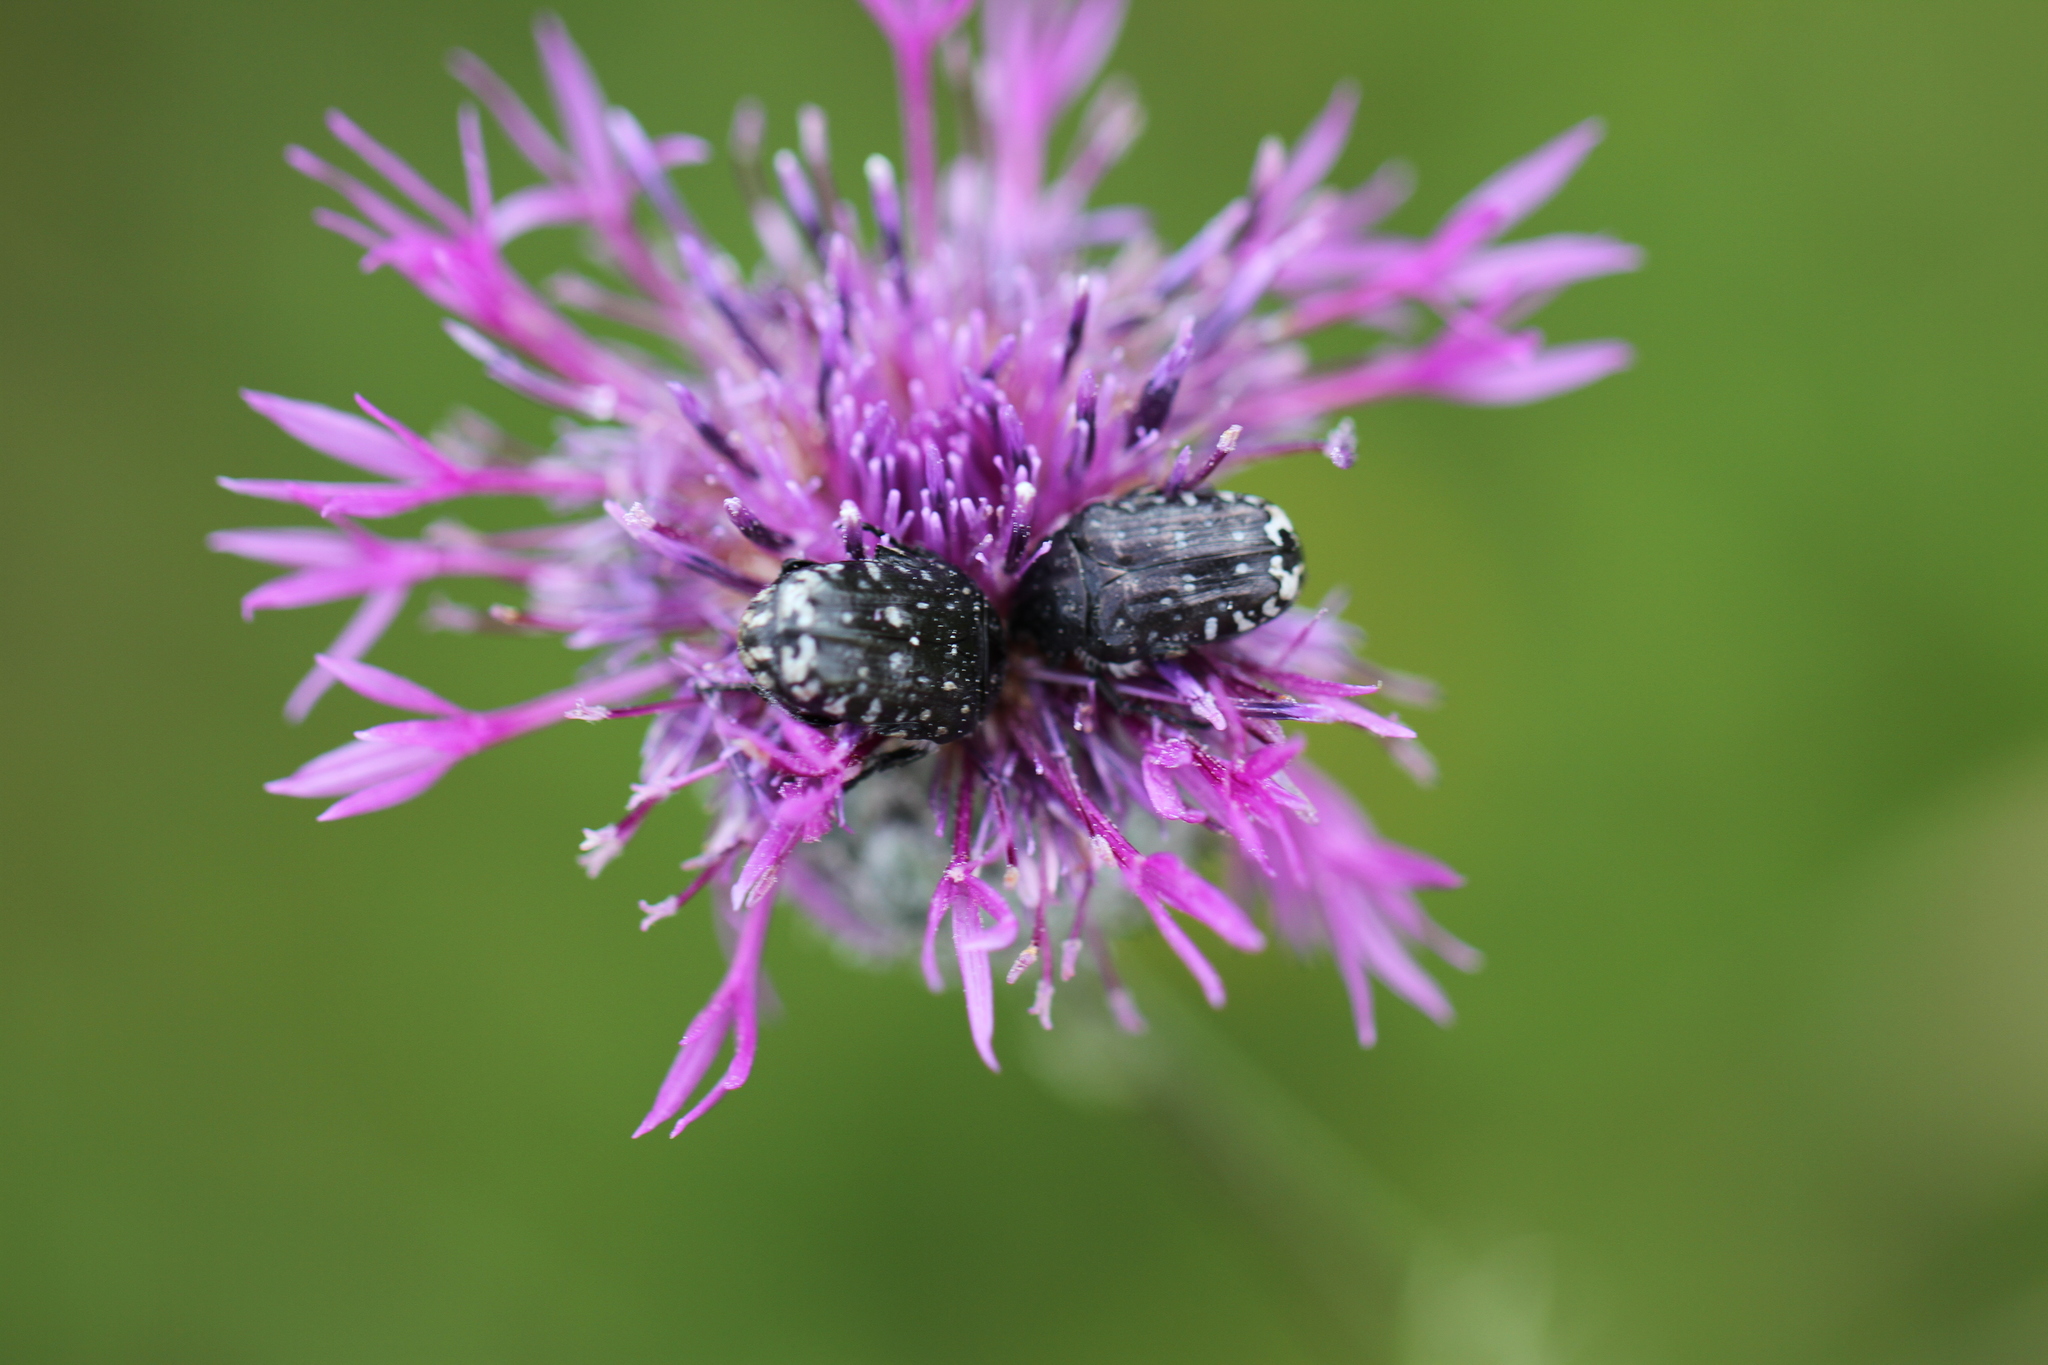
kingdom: Animalia
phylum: Arthropoda
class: Insecta
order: Coleoptera
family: Scarabaeidae
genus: Oxythyrea
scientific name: Oxythyrea funesta
